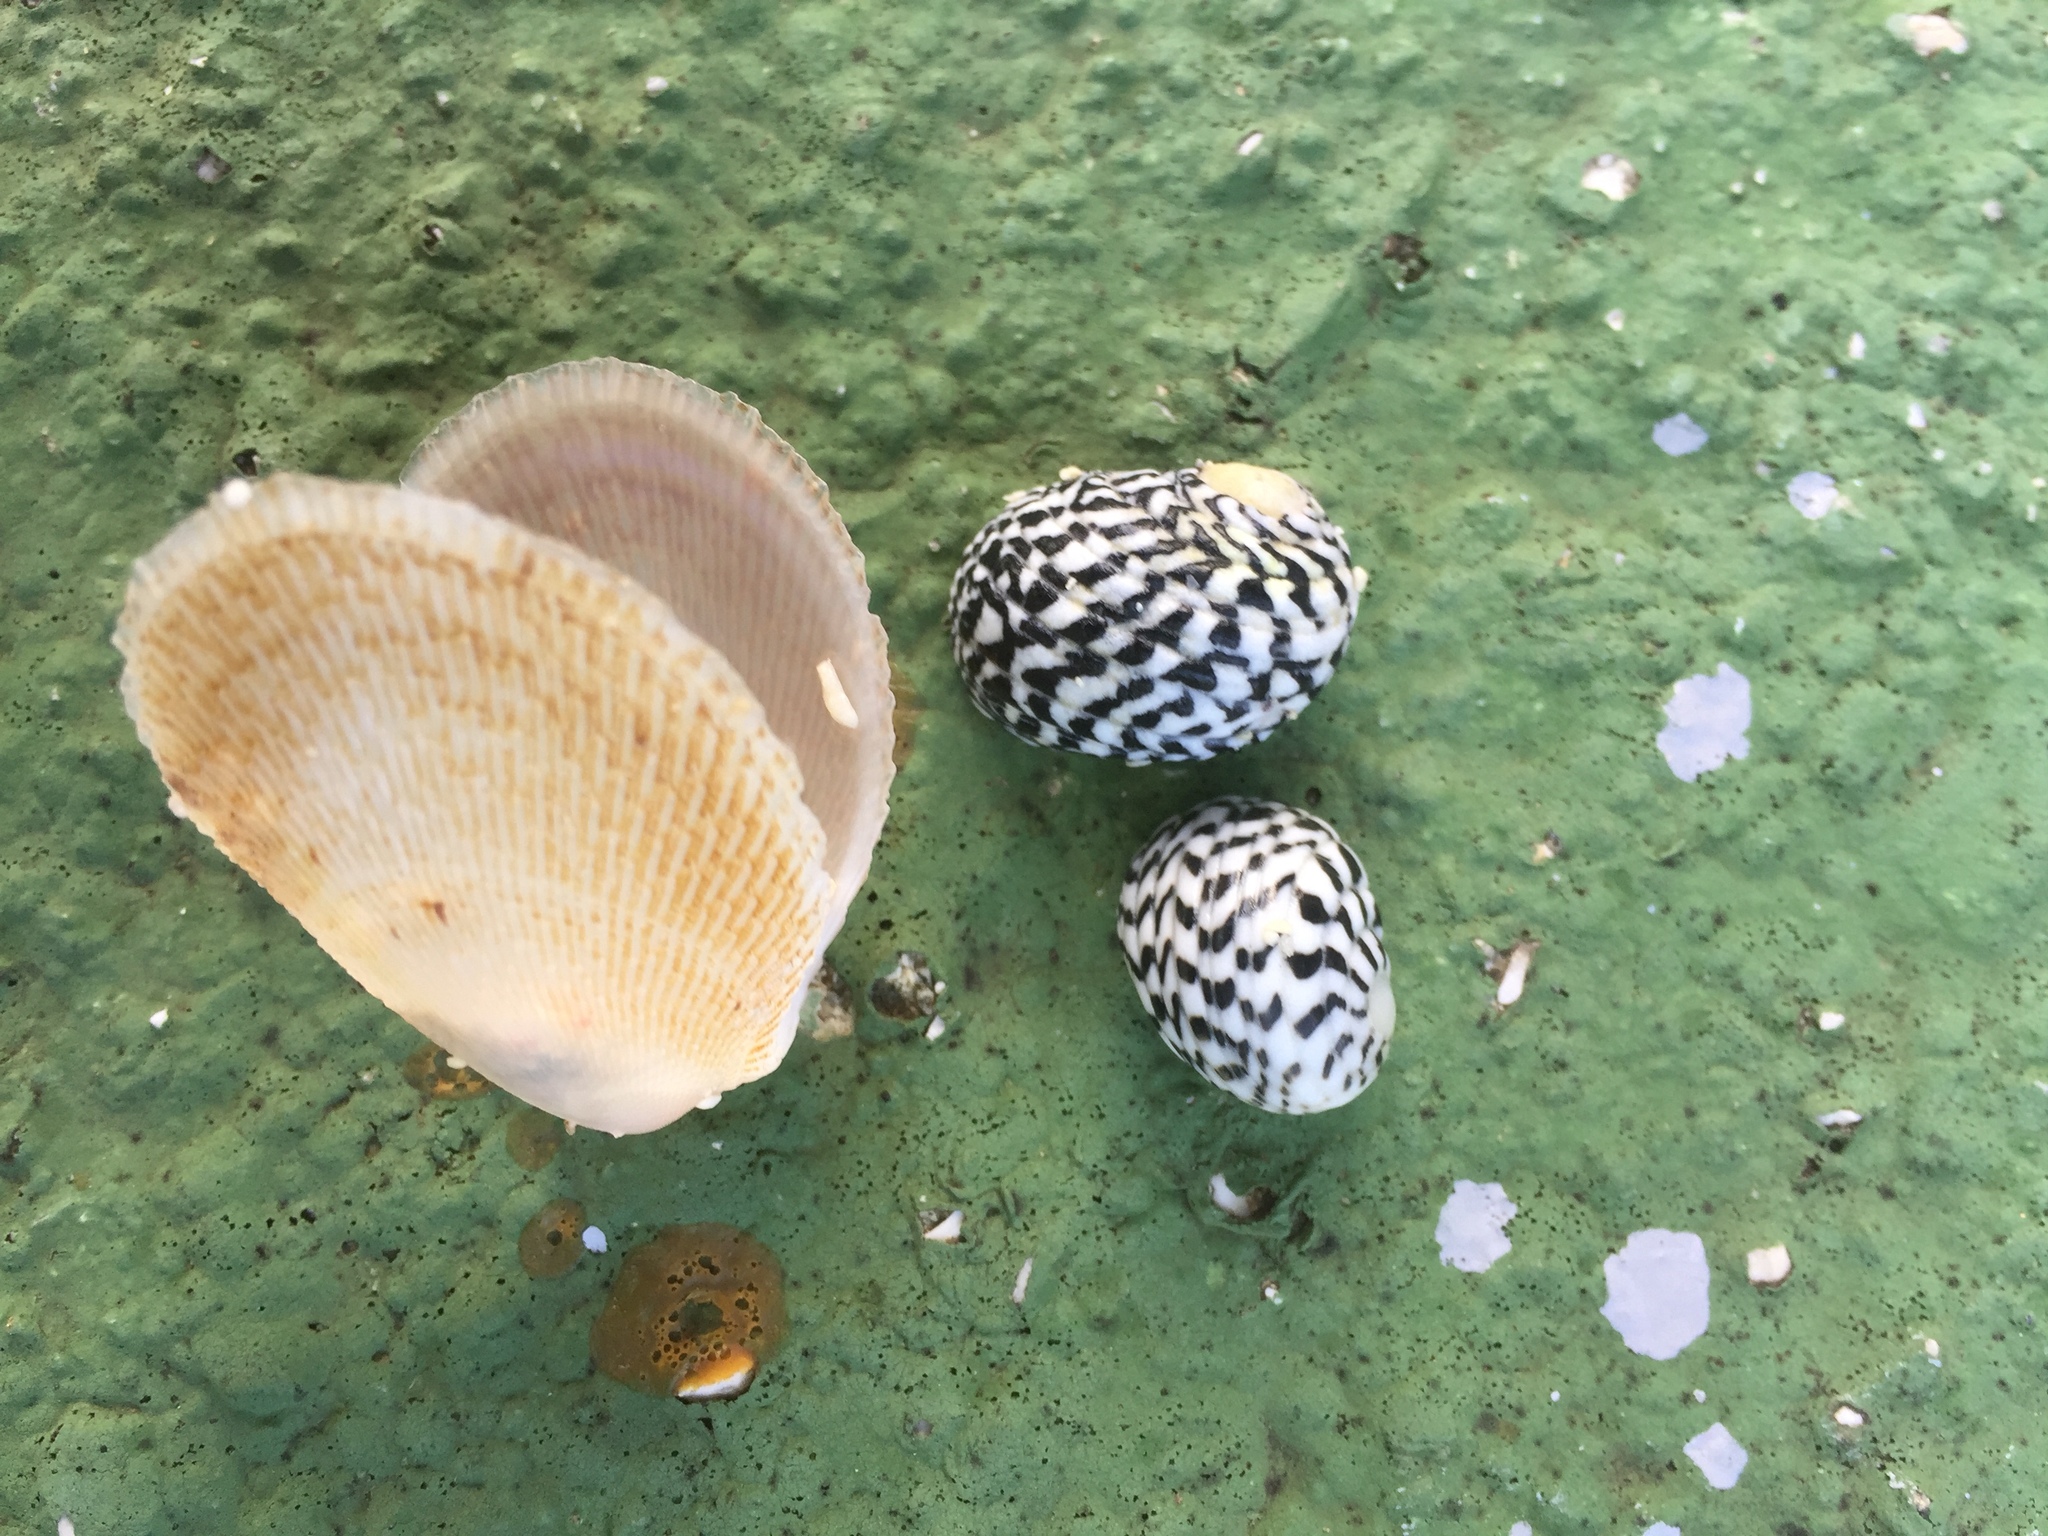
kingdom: Animalia
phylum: Mollusca
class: Gastropoda
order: Cycloneritida
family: Neritidae
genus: Nerita
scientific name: Nerita tessellata
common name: Checkered nerite
